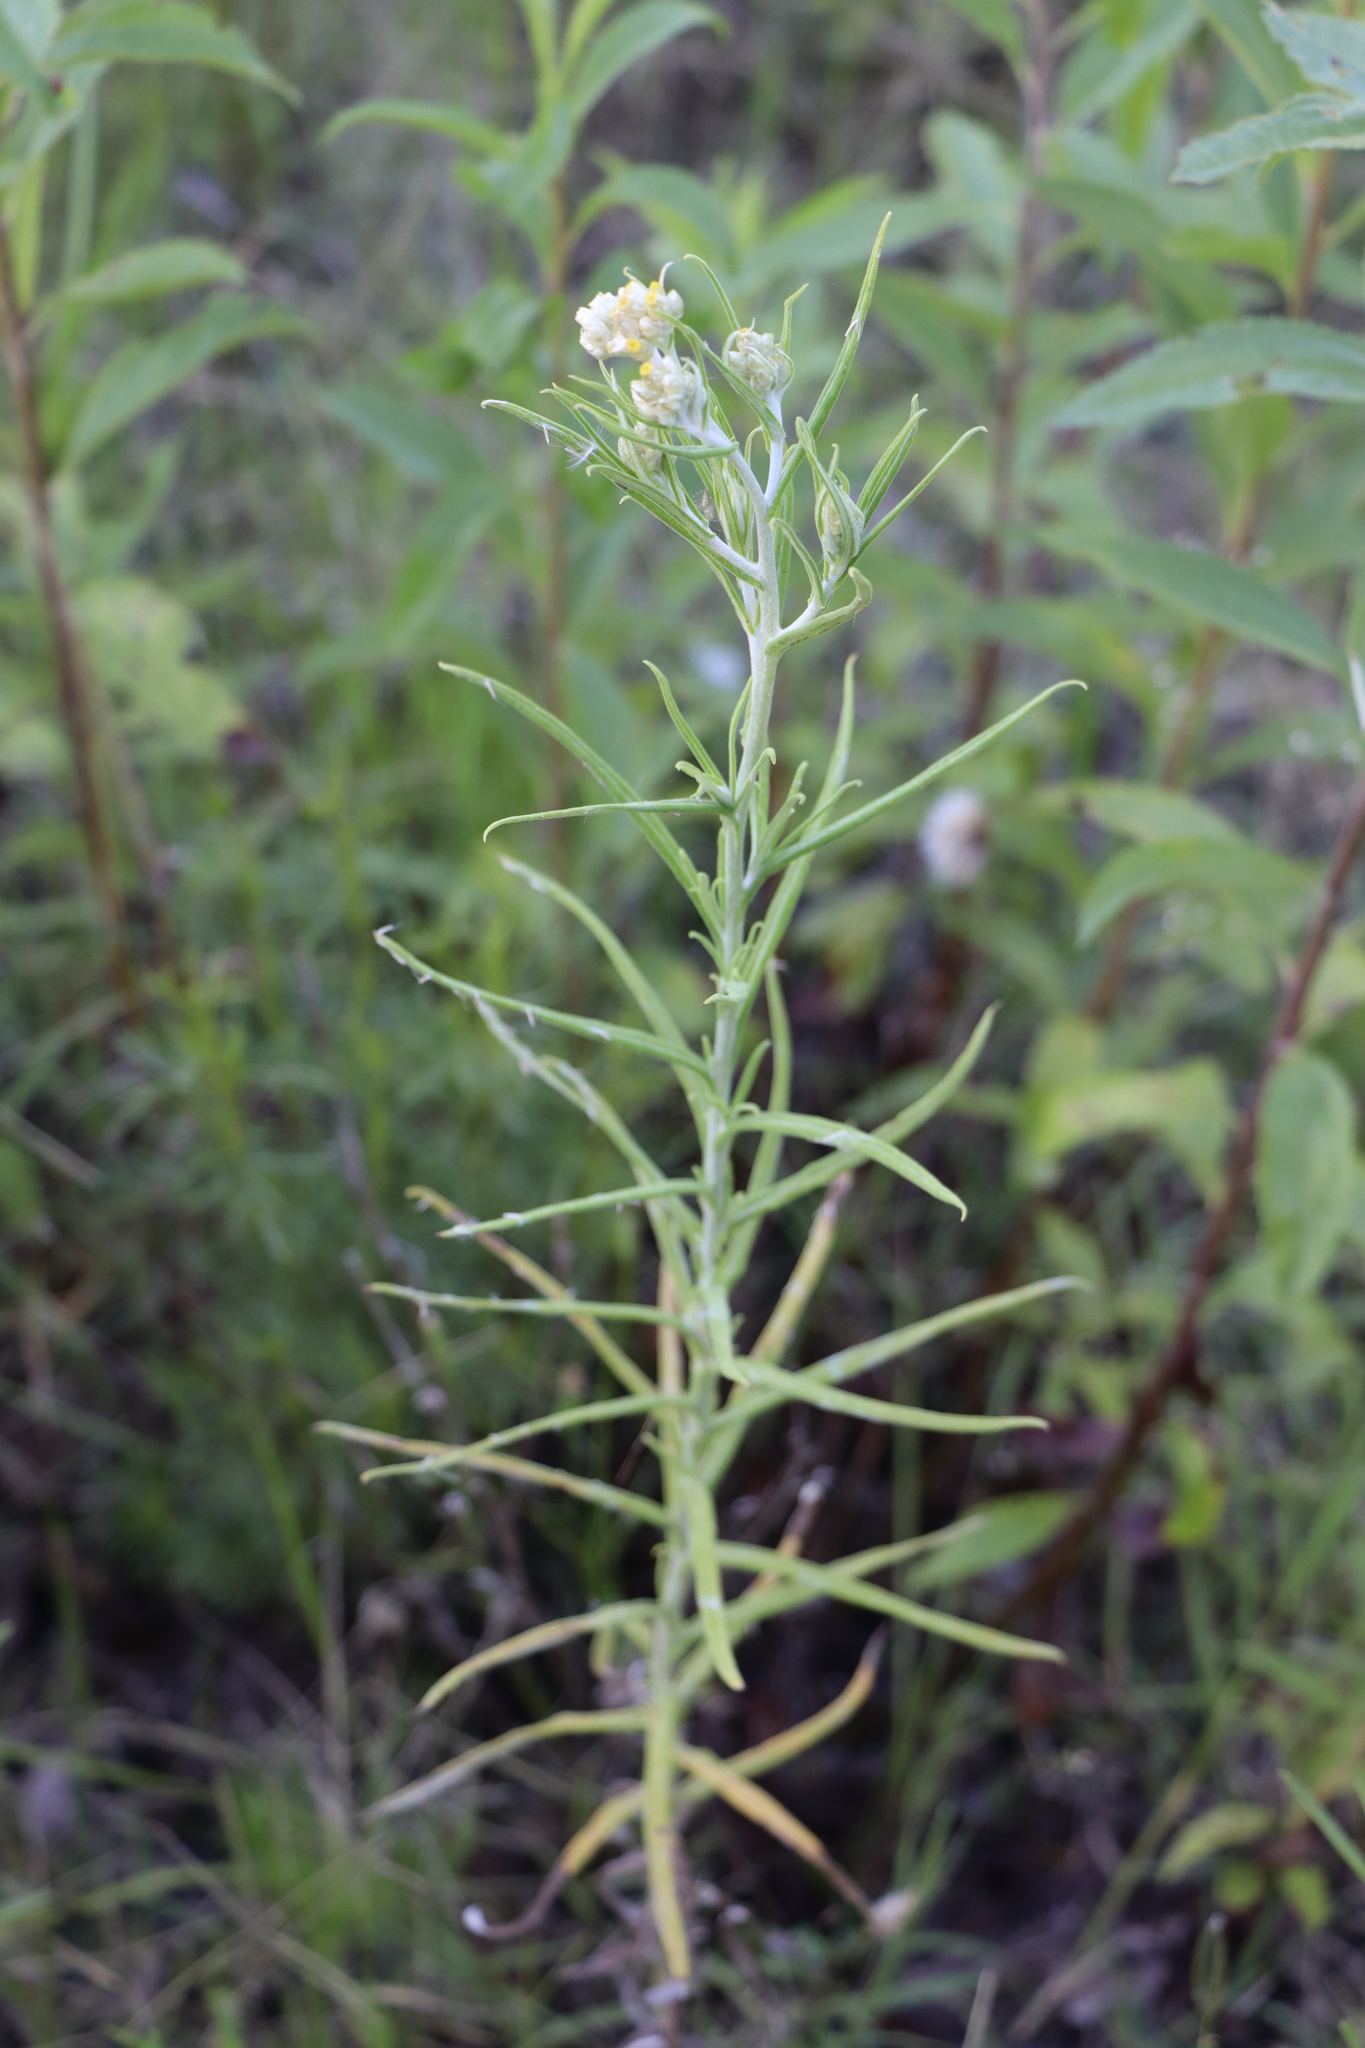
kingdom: Plantae
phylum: Tracheophyta
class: Magnoliopsida
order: Asterales
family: Asteraceae
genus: Pseudognaphalium
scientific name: Pseudognaphalium gaudichaudianum
